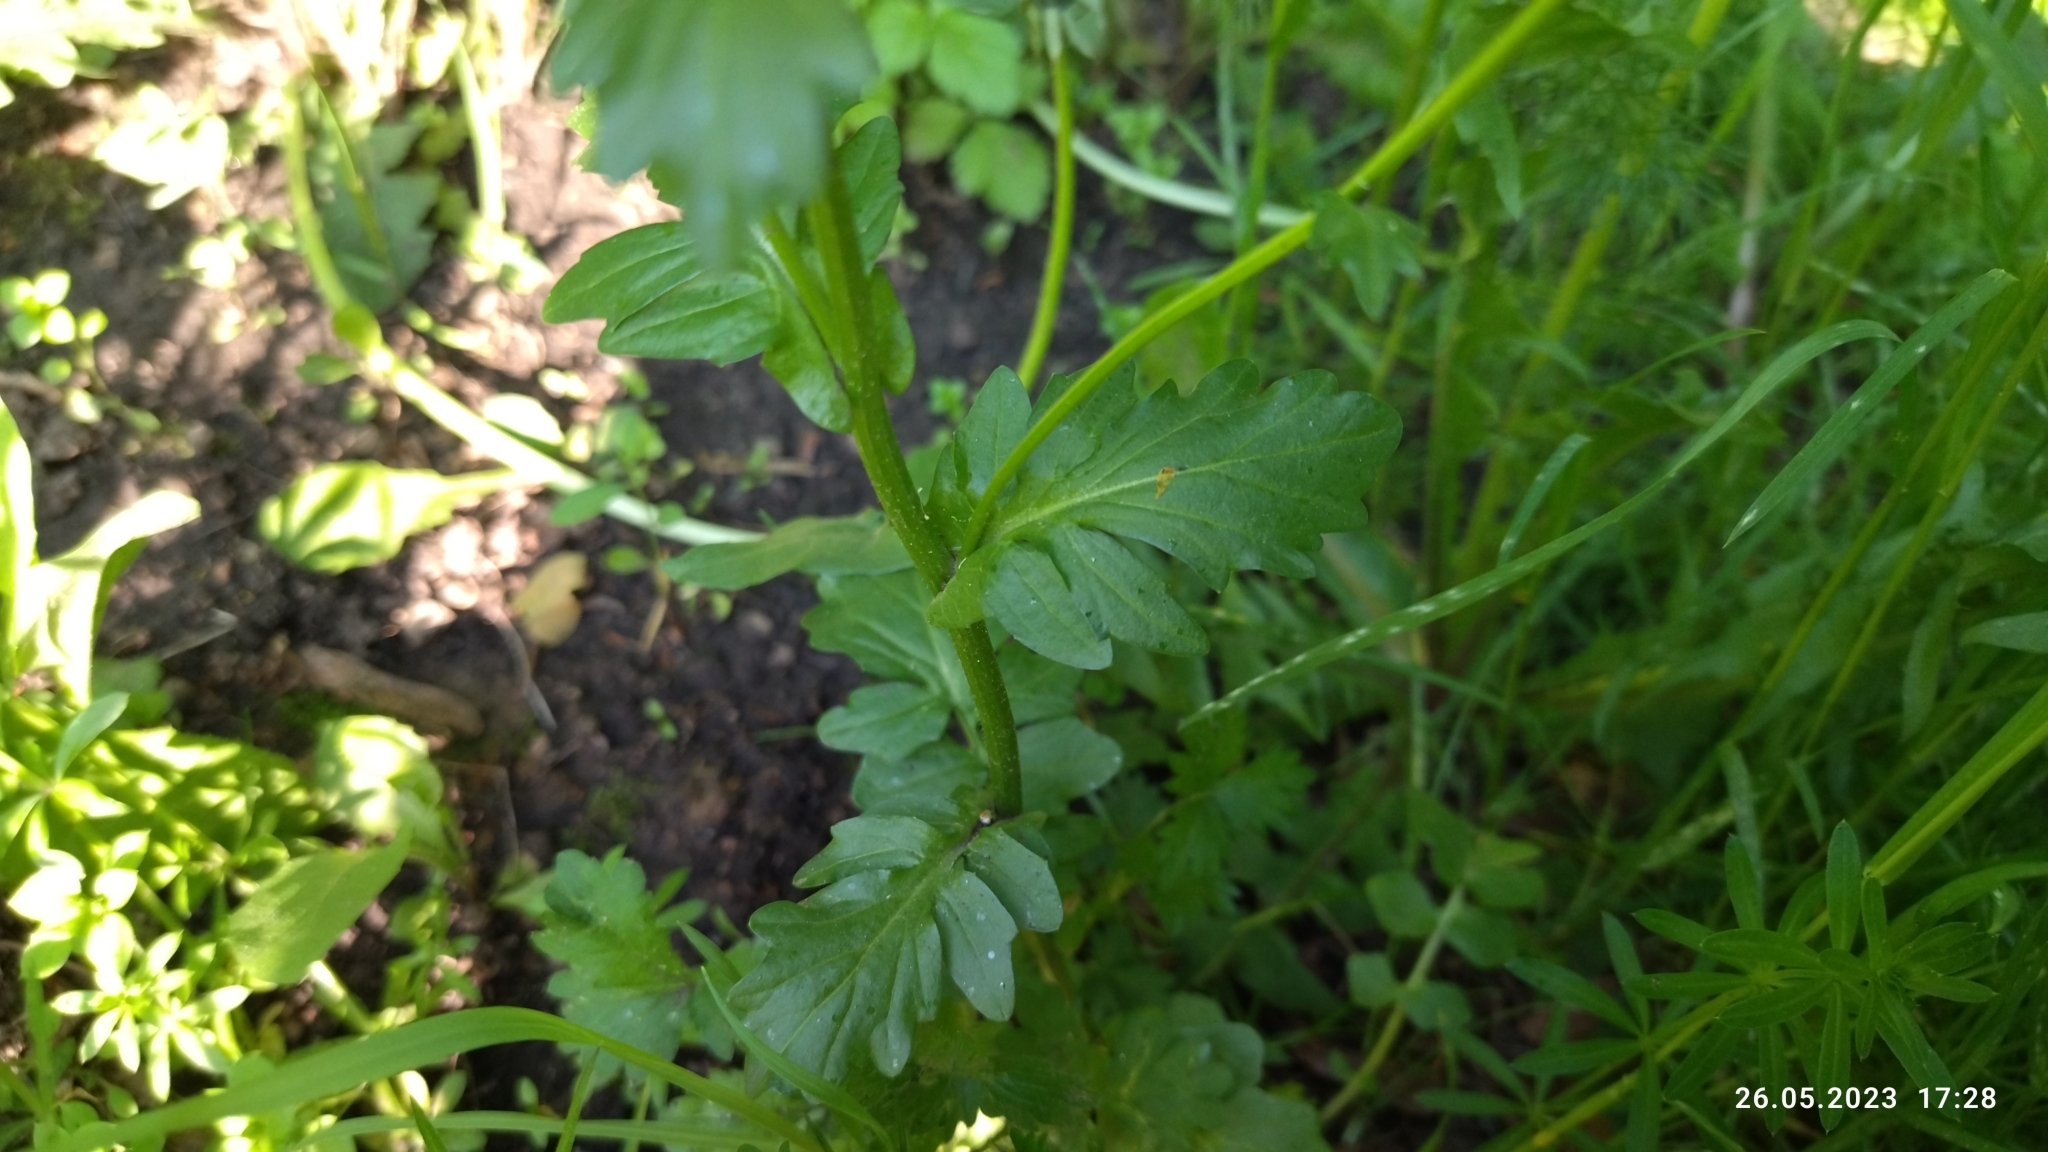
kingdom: Plantae
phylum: Tracheophyta
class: Magnoliopsida
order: Brassicales
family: Brassicaceae
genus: Barbarea
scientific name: Barbarea vulgaris
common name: Cressy-greens
